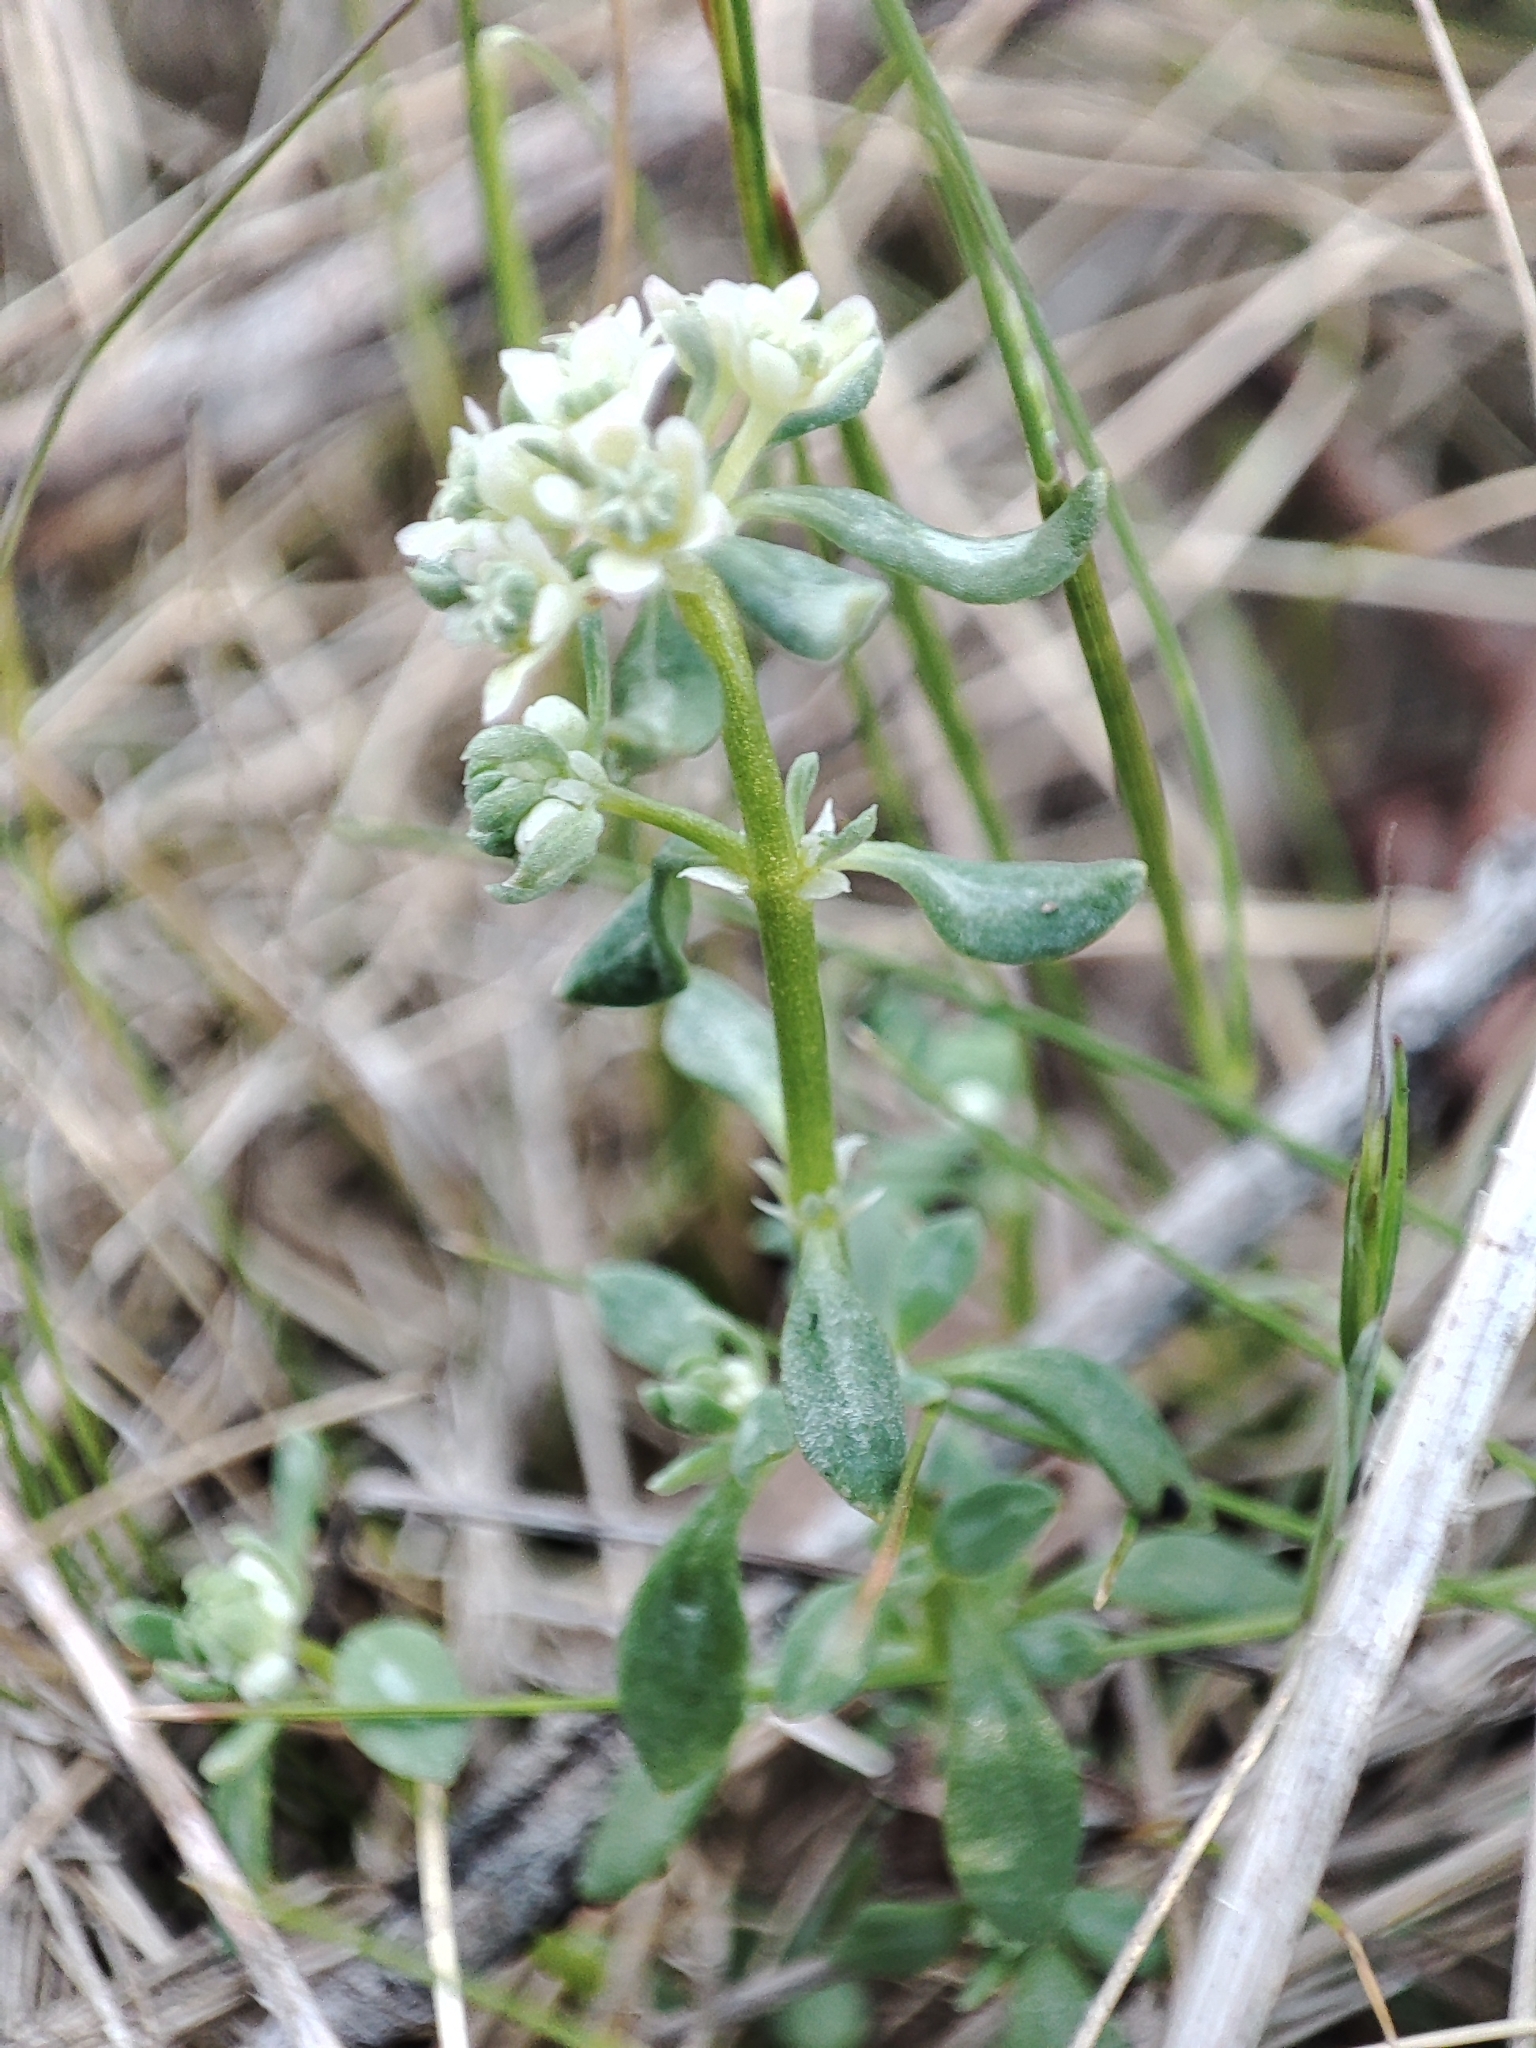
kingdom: Plantae
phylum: Tracheophyta
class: Magnoliopsida
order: Malpighiales
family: Phyllanthaceae
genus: Poranthera
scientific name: Poranthera microphylla
